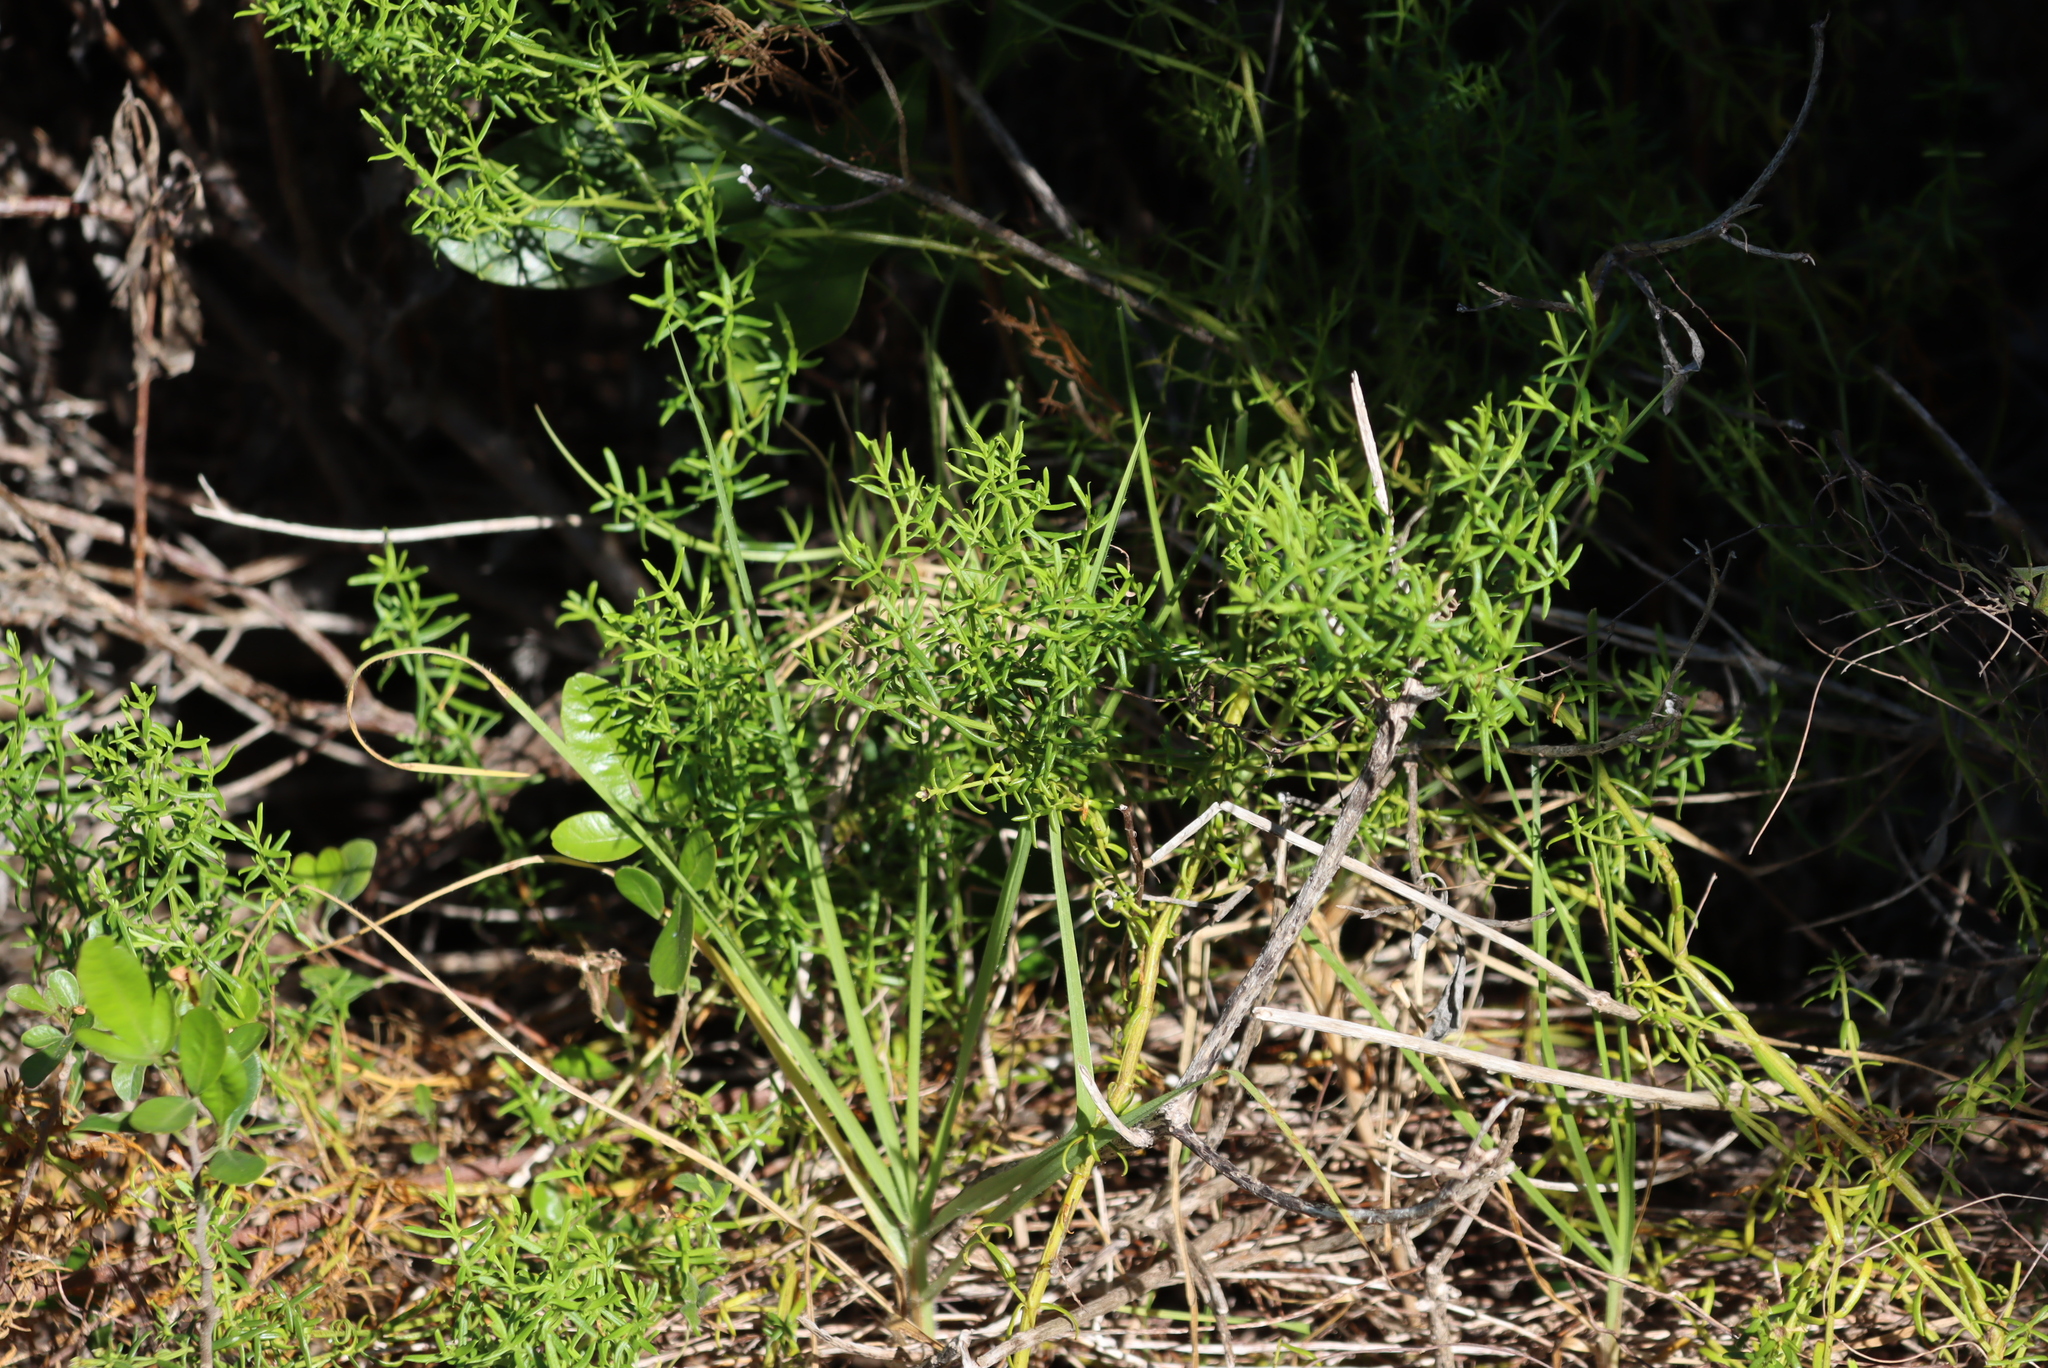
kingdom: Plantae
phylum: Tracheophyta
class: Magnoliopsida
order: Gentianales
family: Gentianaceae
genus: Chironia
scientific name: Chironia baccifera
